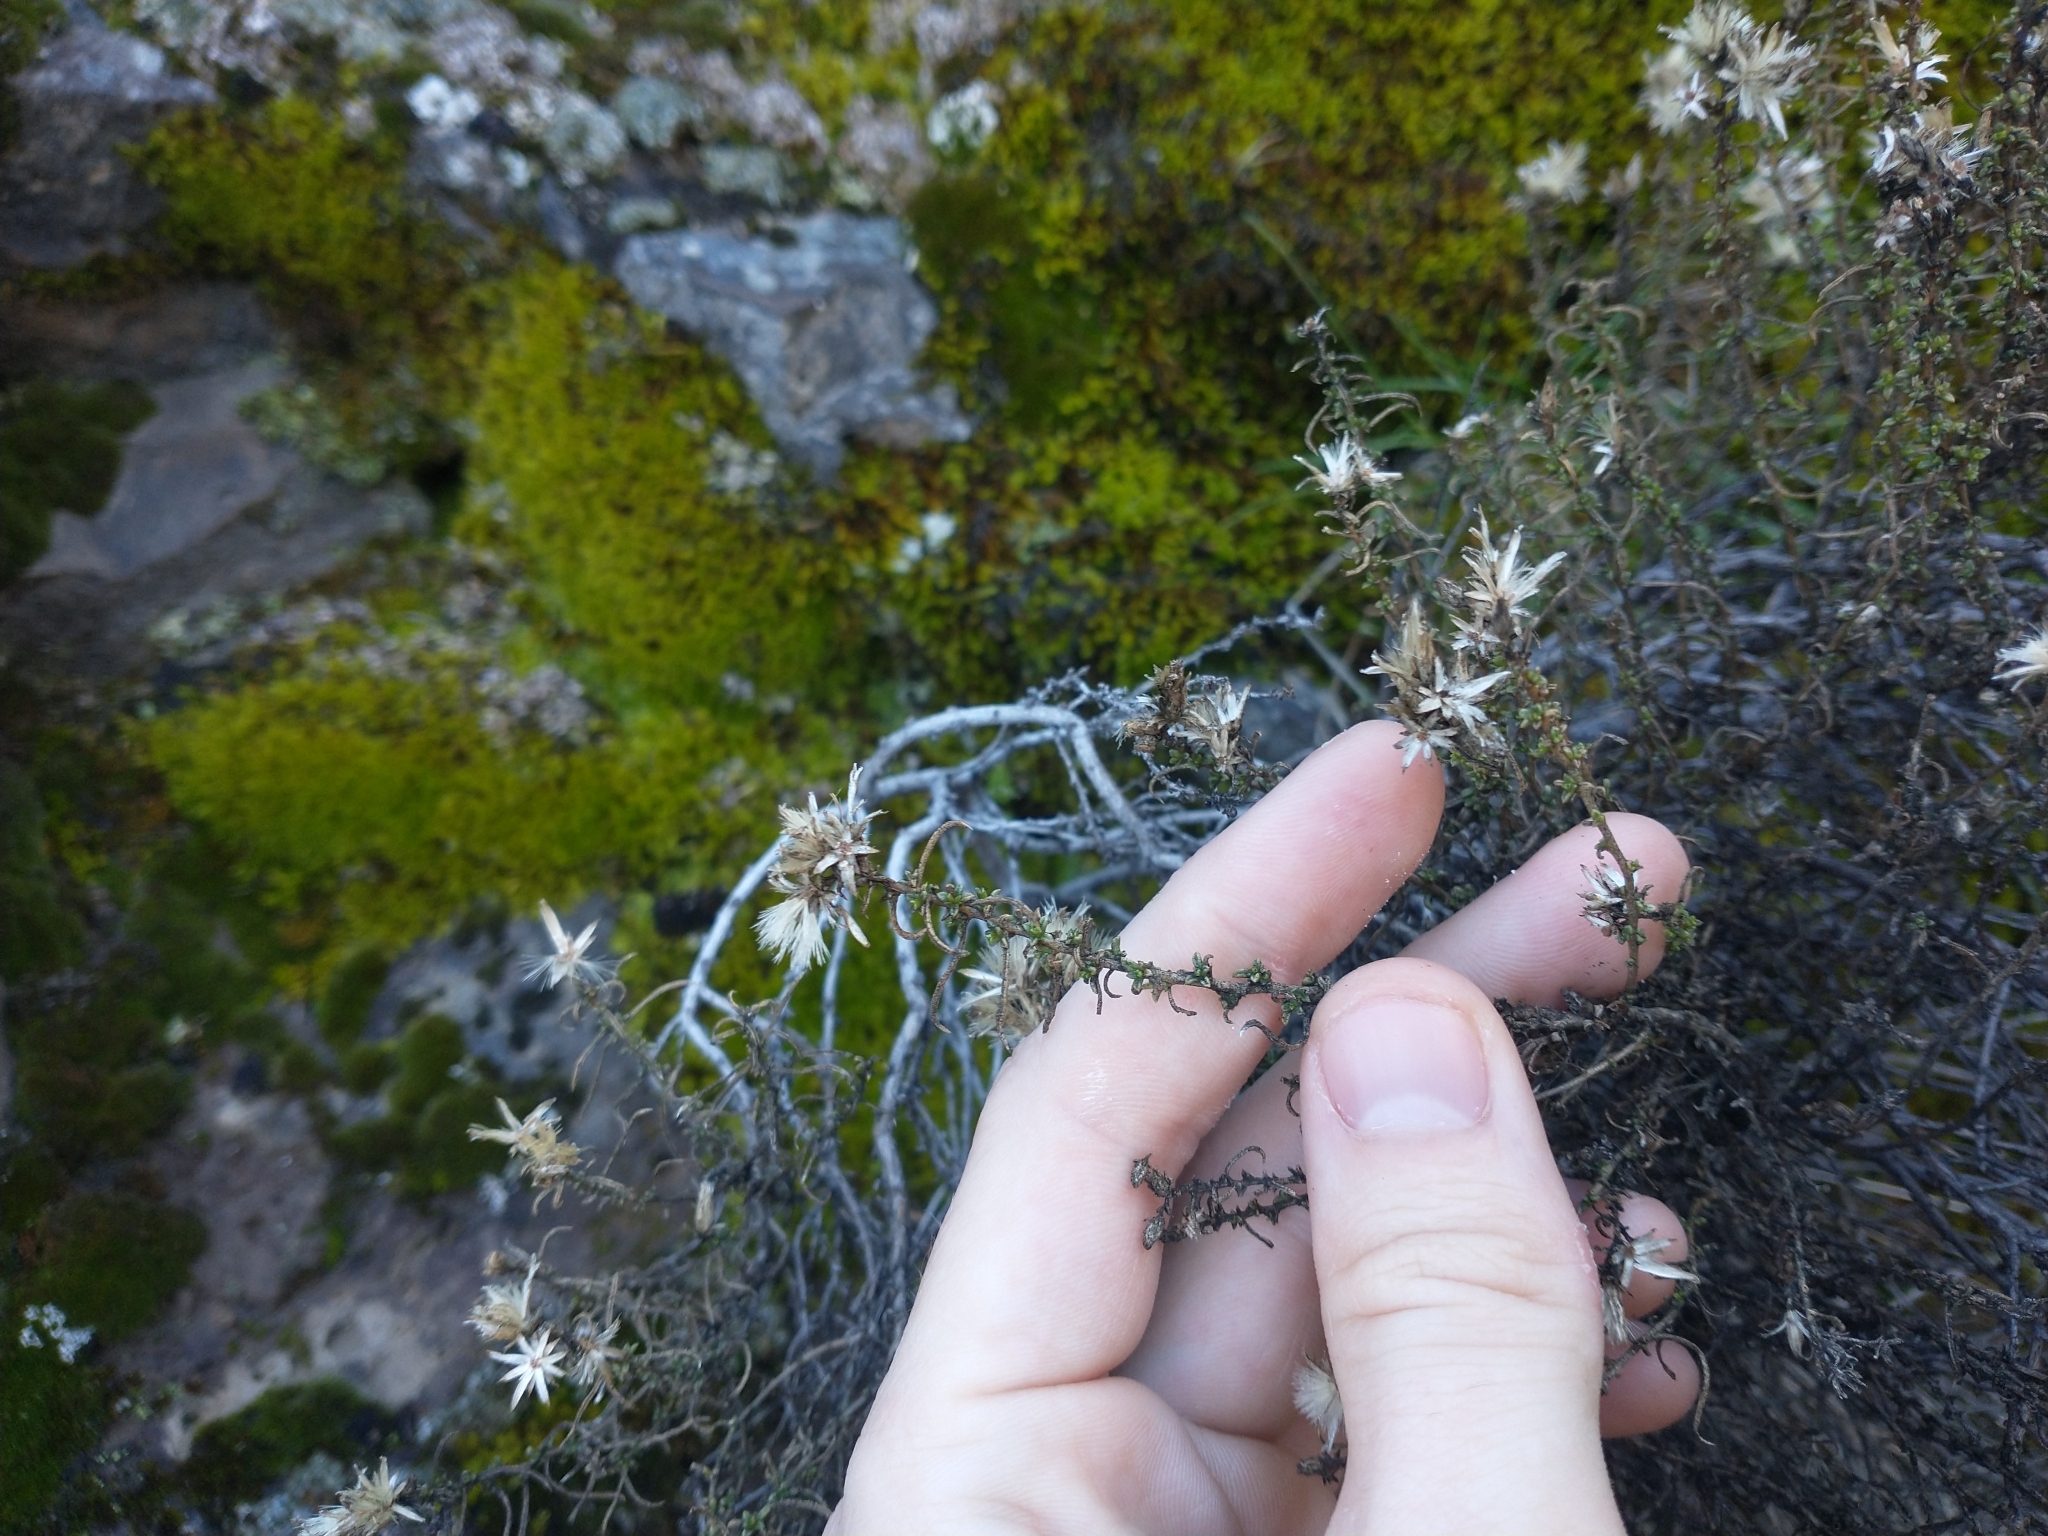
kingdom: Plantae
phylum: Tracheophyta
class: Magnoliopsida
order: Asterales
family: Asteraceae
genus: Ericameria
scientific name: Ericameria resinosa
